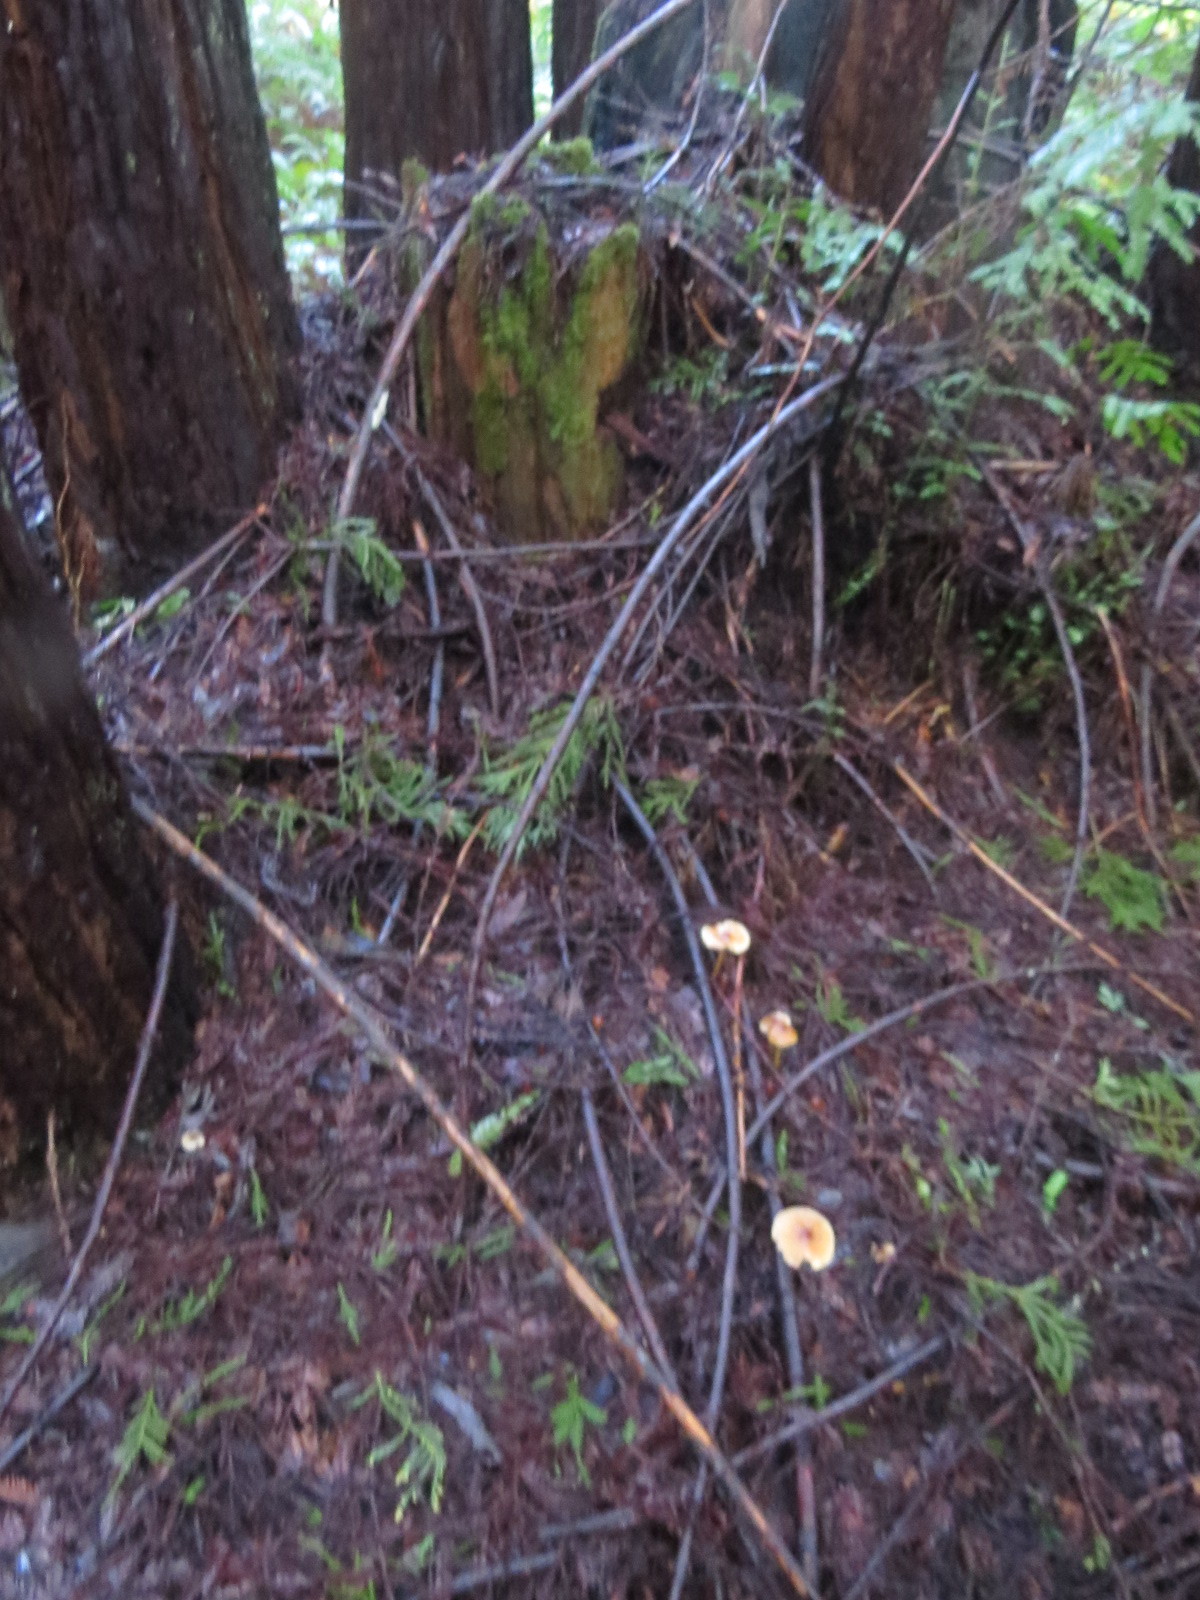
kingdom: Fungi
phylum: Basidiomycota
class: Agaricomycetes
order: Agaricales
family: Tricholomataceae
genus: Caulorhiza
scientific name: Caulorhiza umbonata
